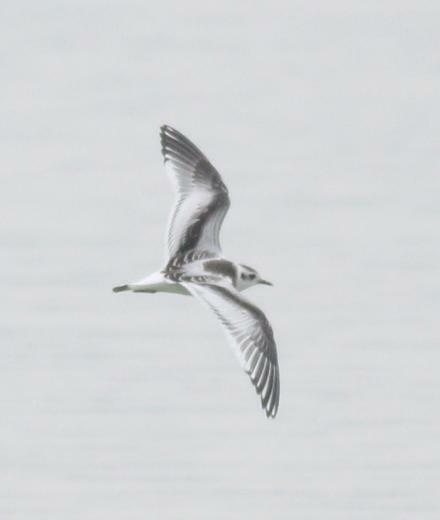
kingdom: Animalia
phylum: Chordata
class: Aves
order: Charadriiformes
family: Laridae
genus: Hydrocoloeus
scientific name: Hydrocoloeus minutus
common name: Little gull
